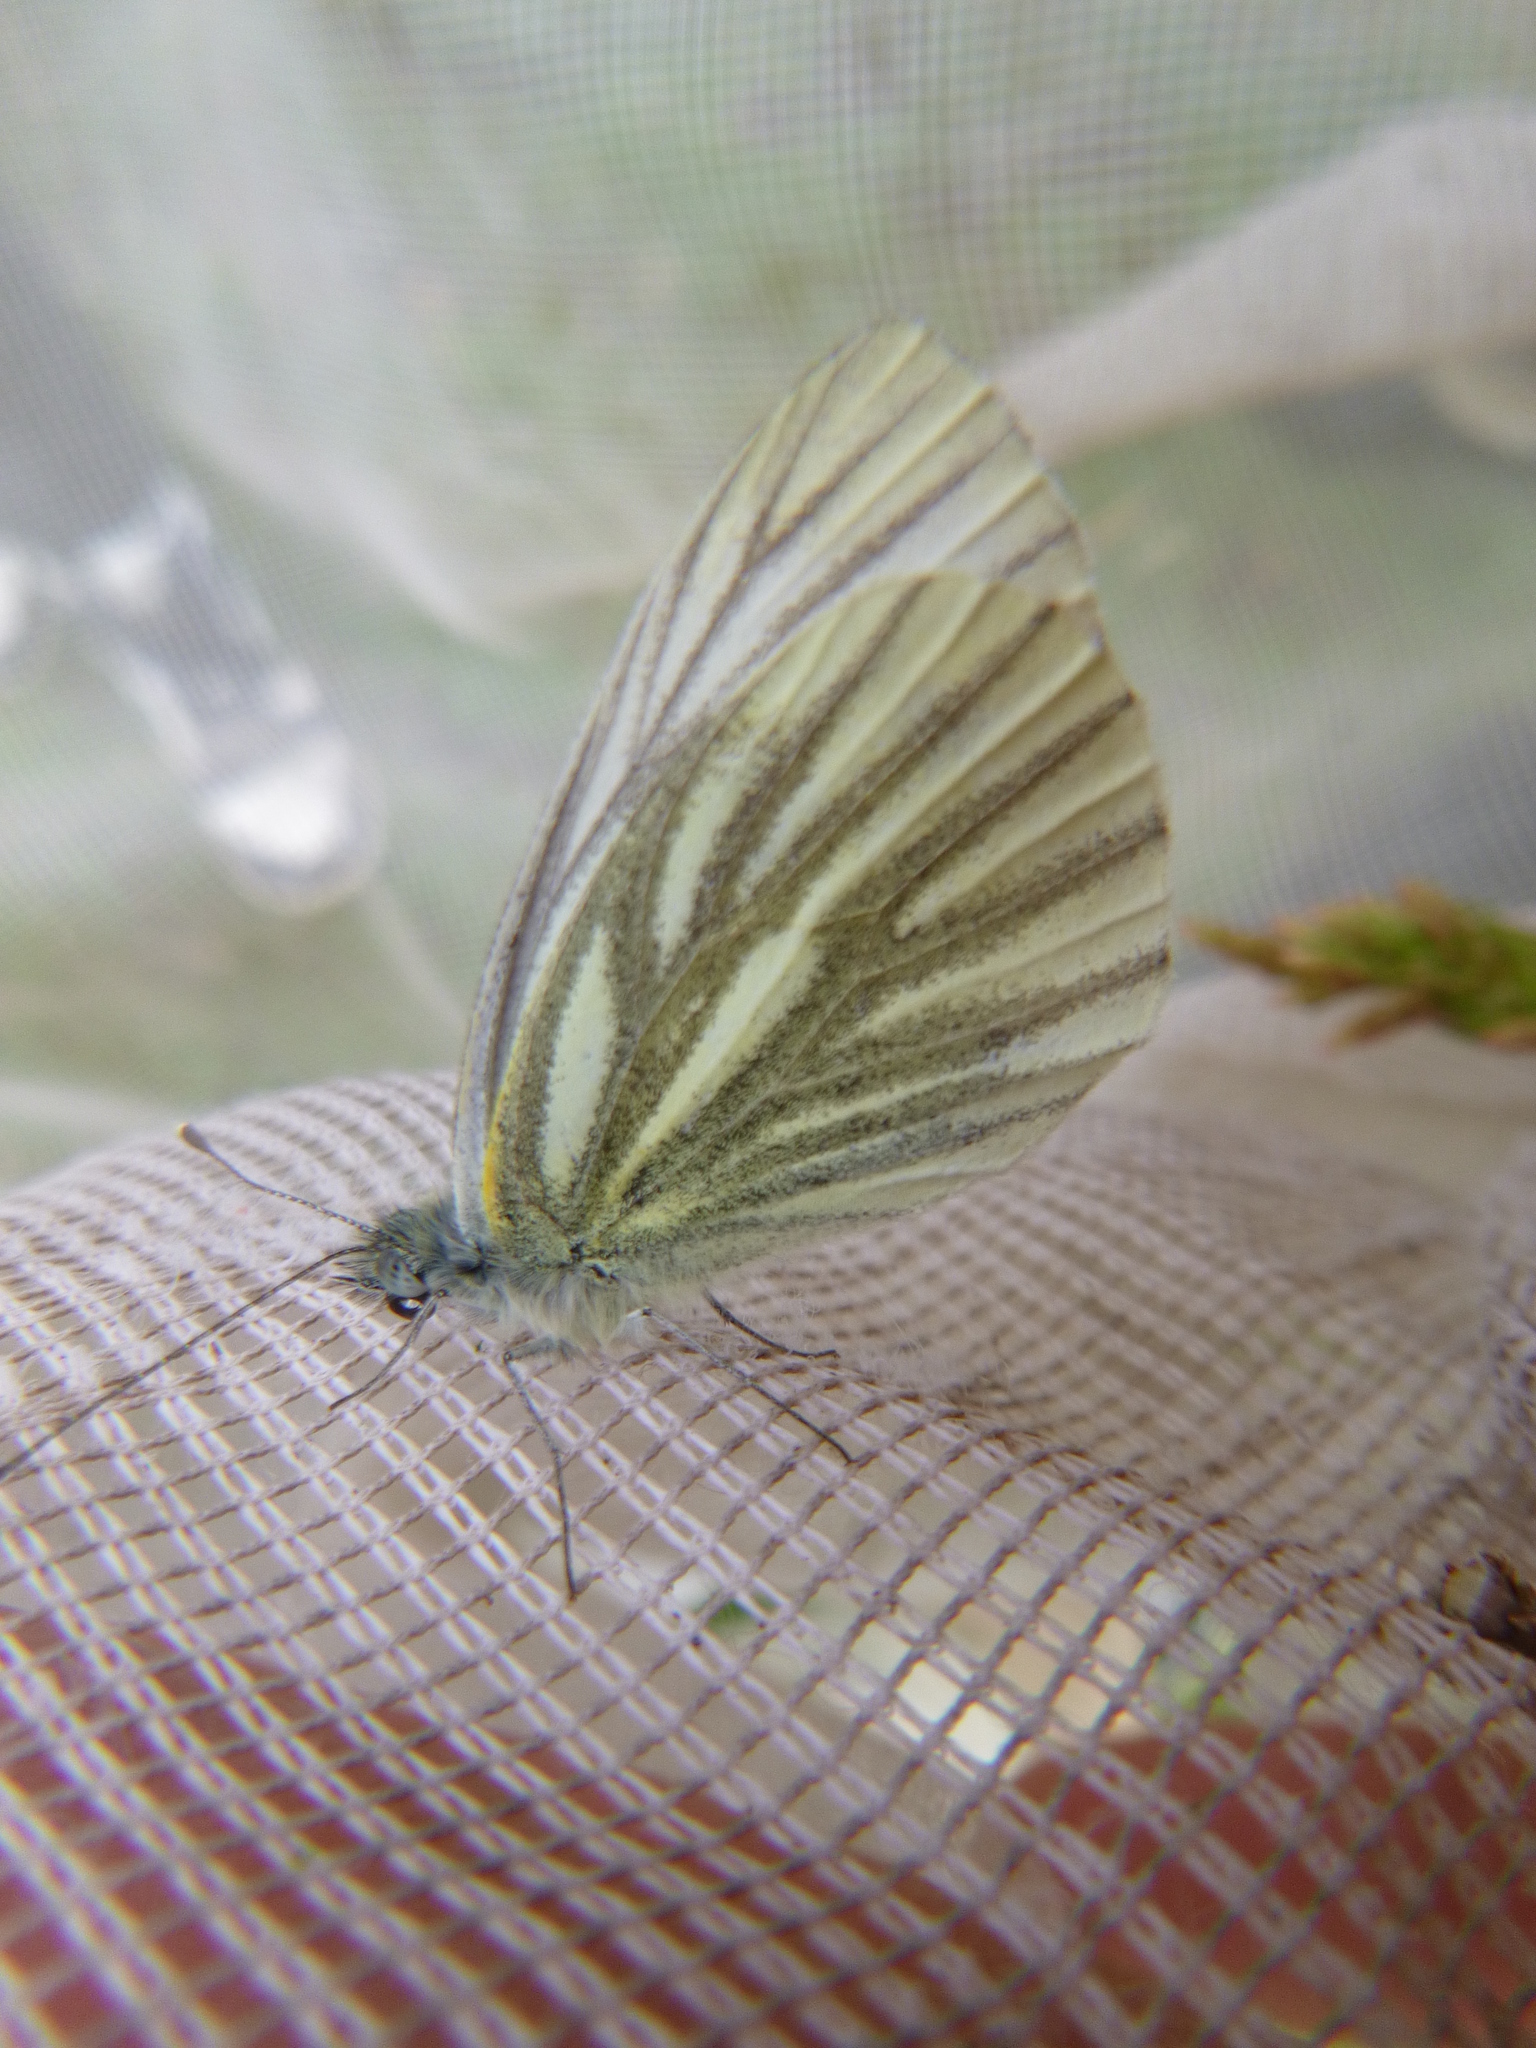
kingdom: Animalia
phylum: Arthropoda
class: Insecta
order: Lepidoptera
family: Pieridae
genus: Pieris
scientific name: Pieris napi
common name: Green-veined white
